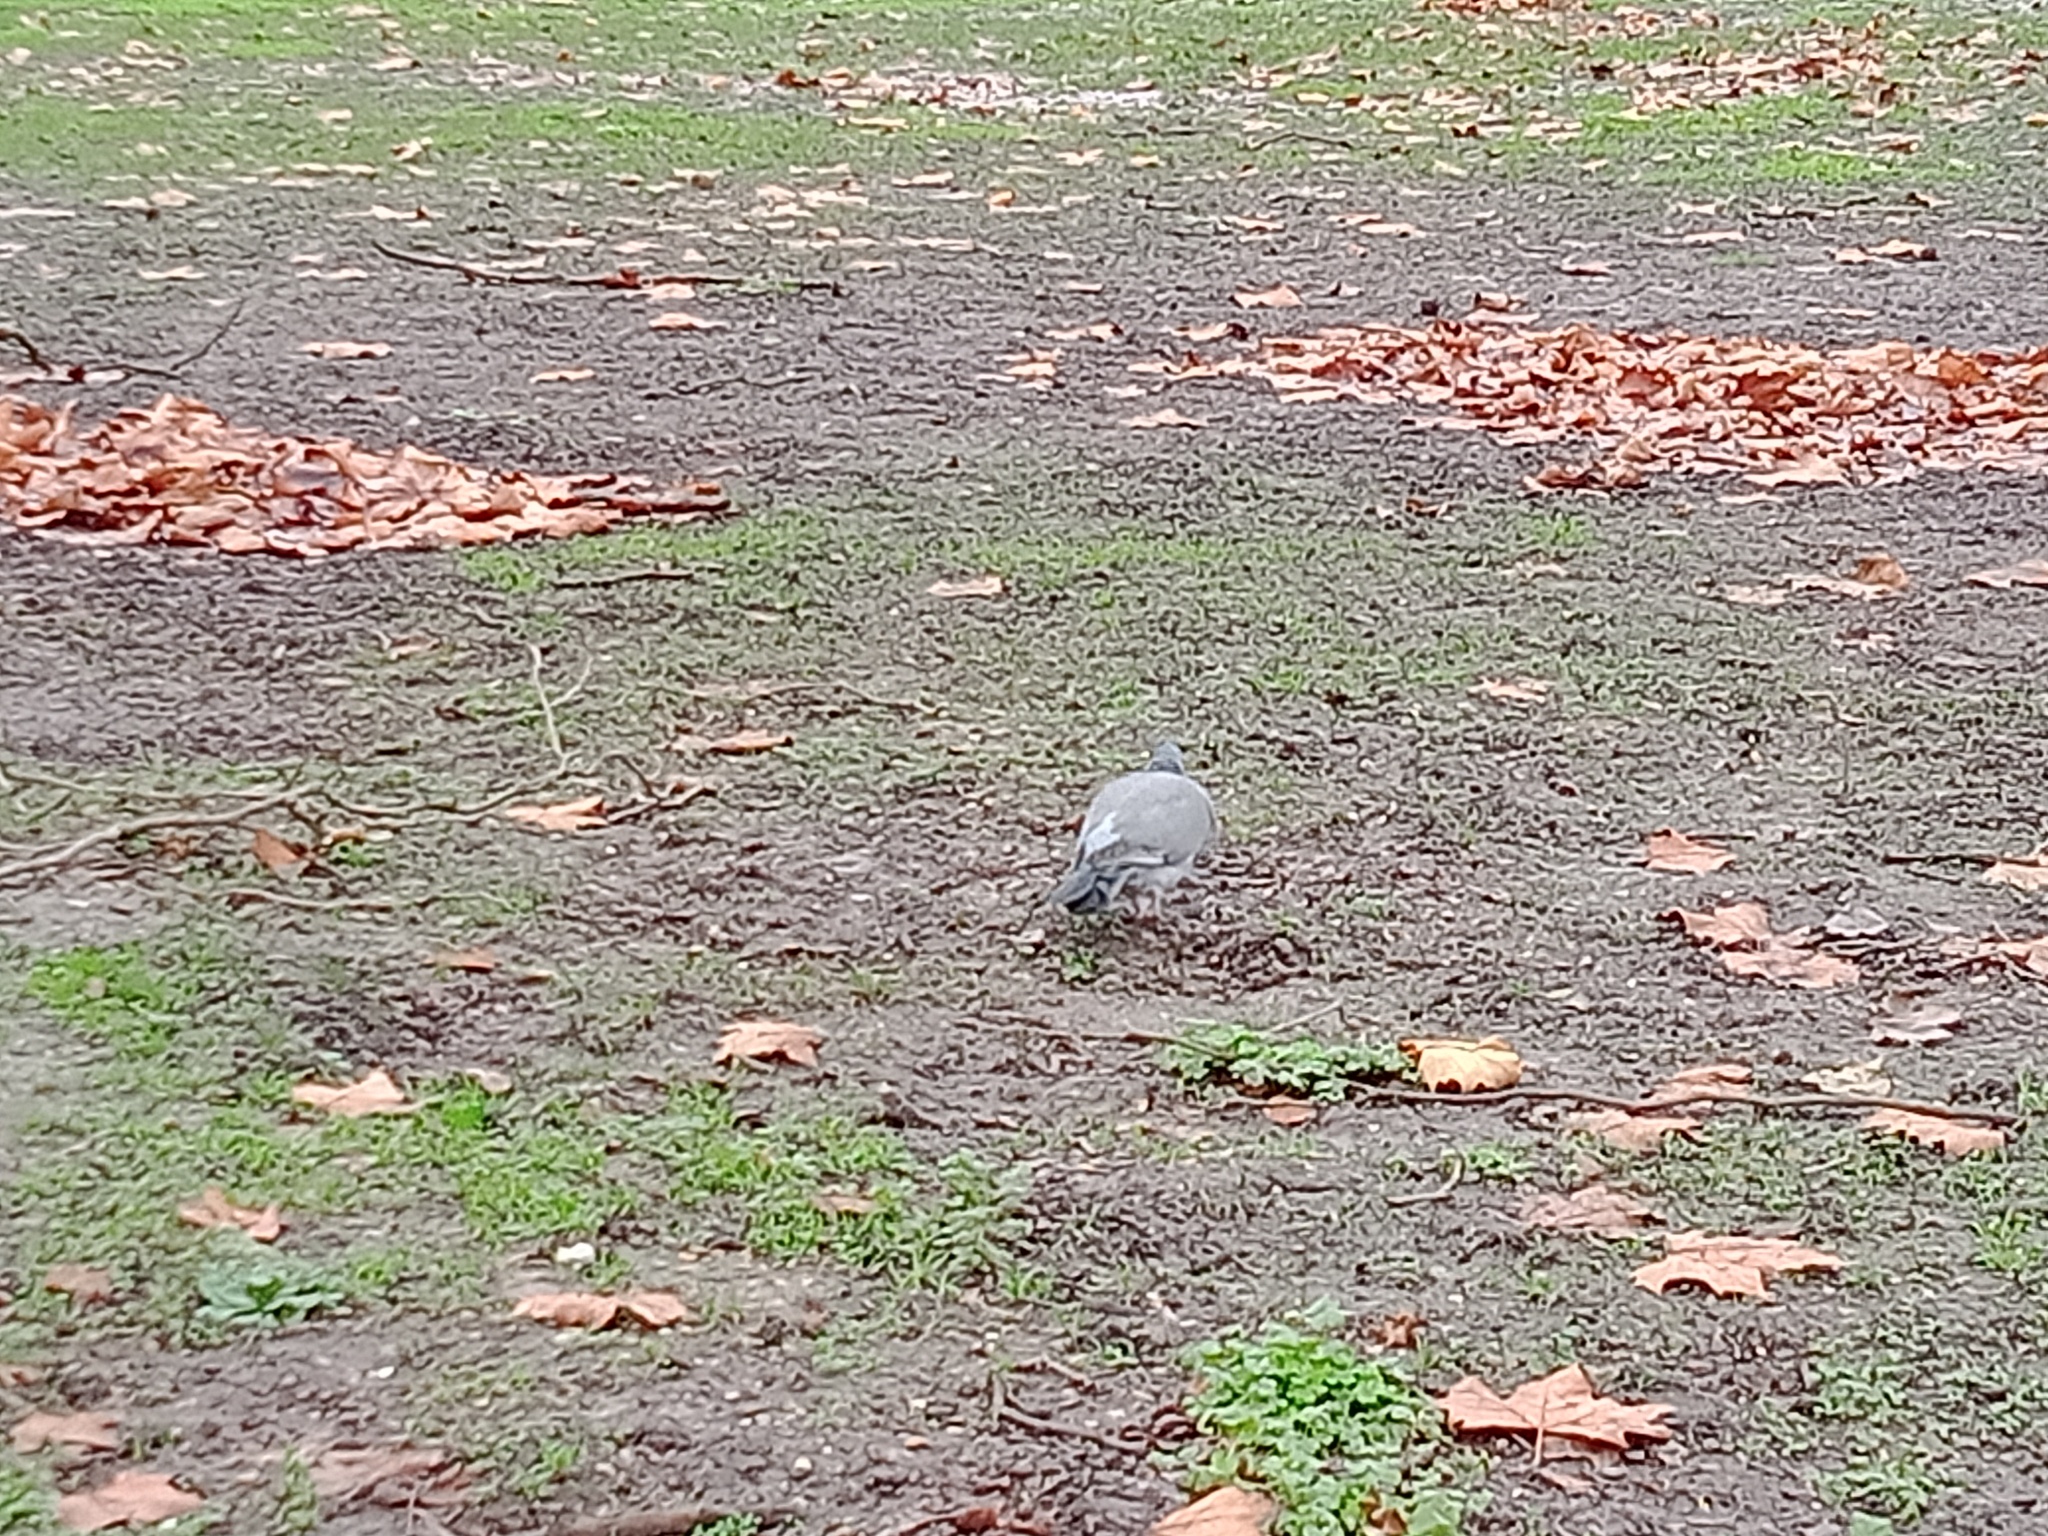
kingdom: Animalia
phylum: Chordata
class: Aves
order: Columbiformes
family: Columbidae
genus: Columba
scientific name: Columba palumbus
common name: Common wood pigeon
